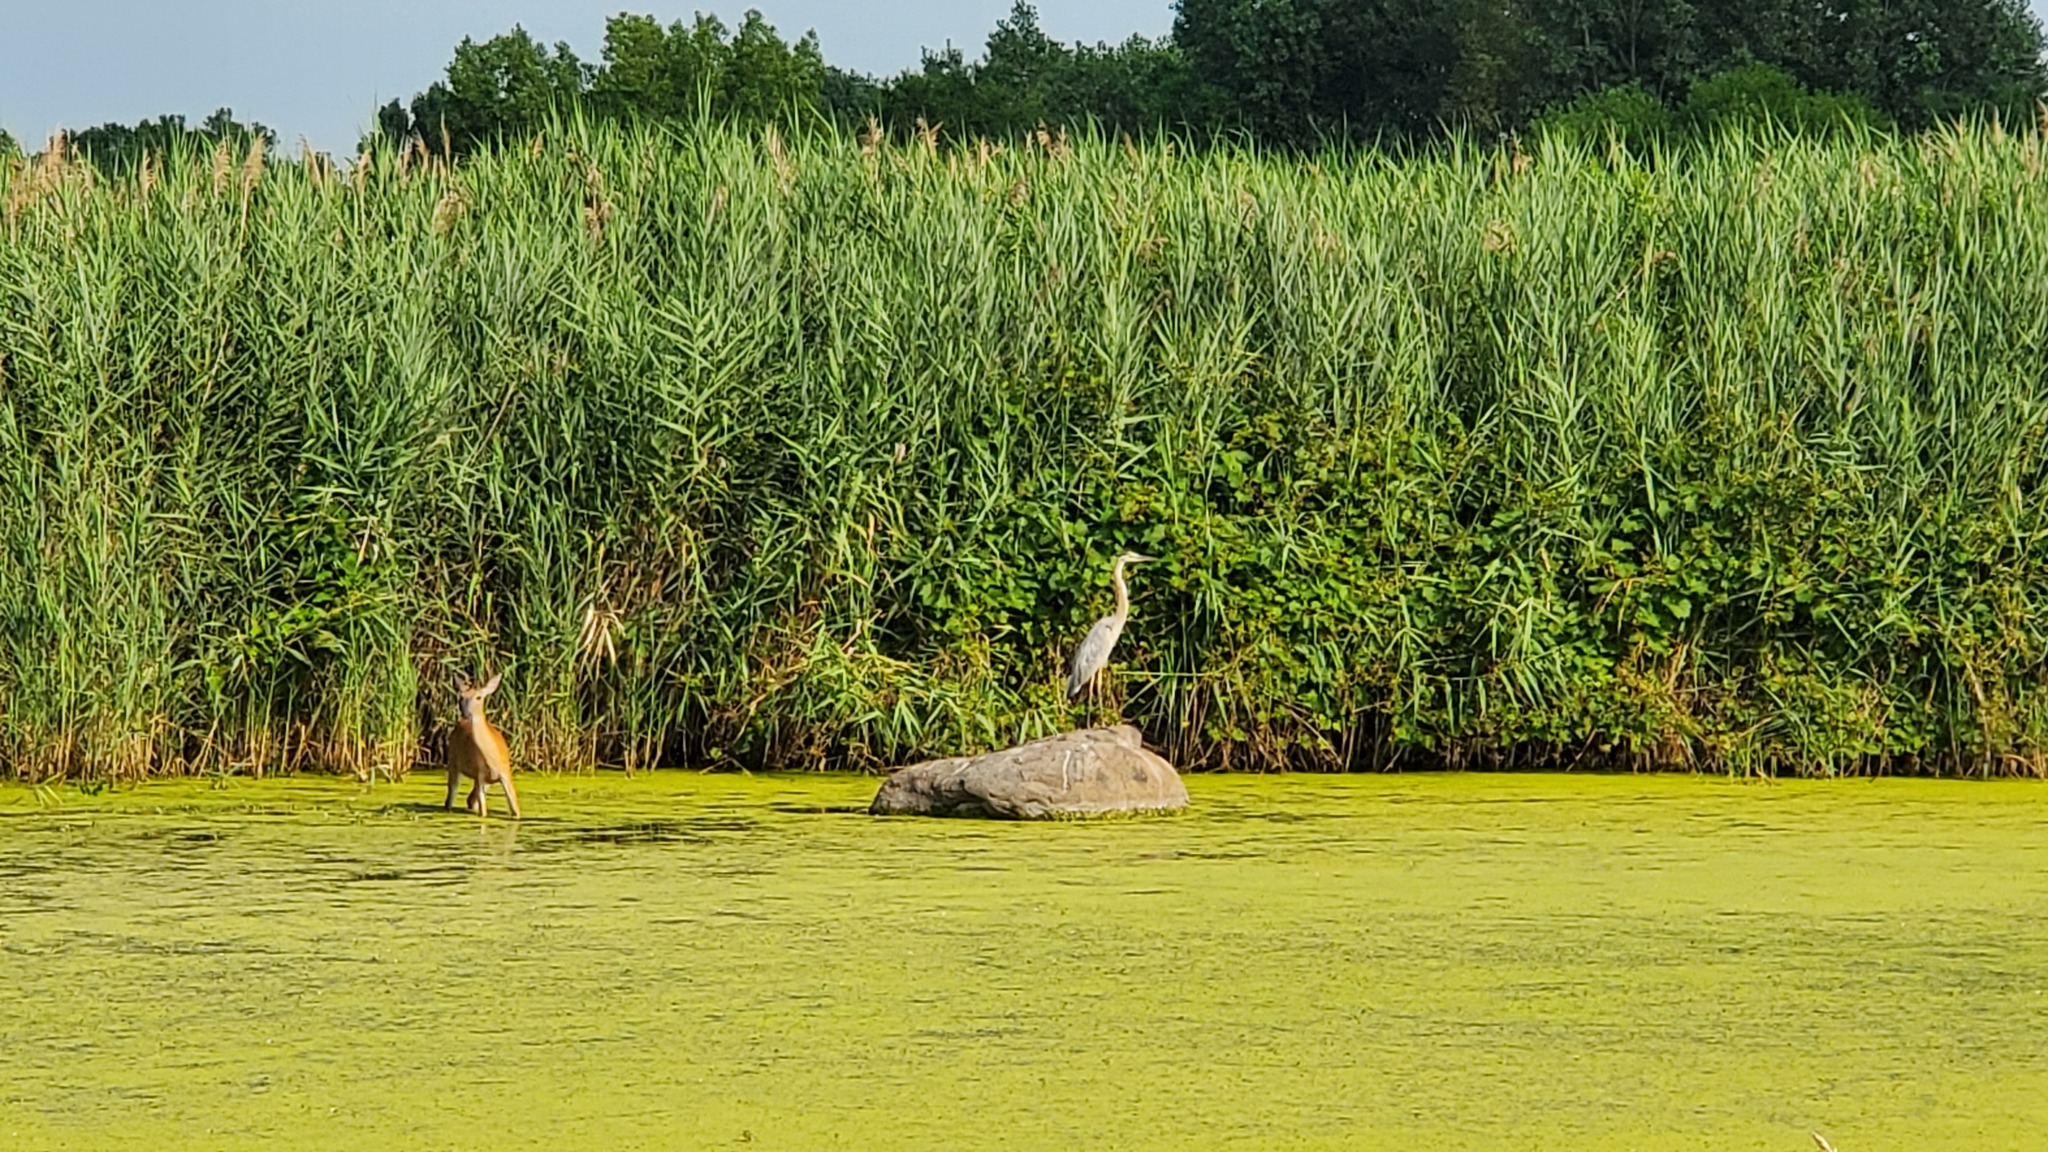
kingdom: Animalia
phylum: Chordata
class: Mammalia
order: Artiodactyla
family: Cervidae
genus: Odocoileus
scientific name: Odocoileus virginianus
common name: White-tailed deer
